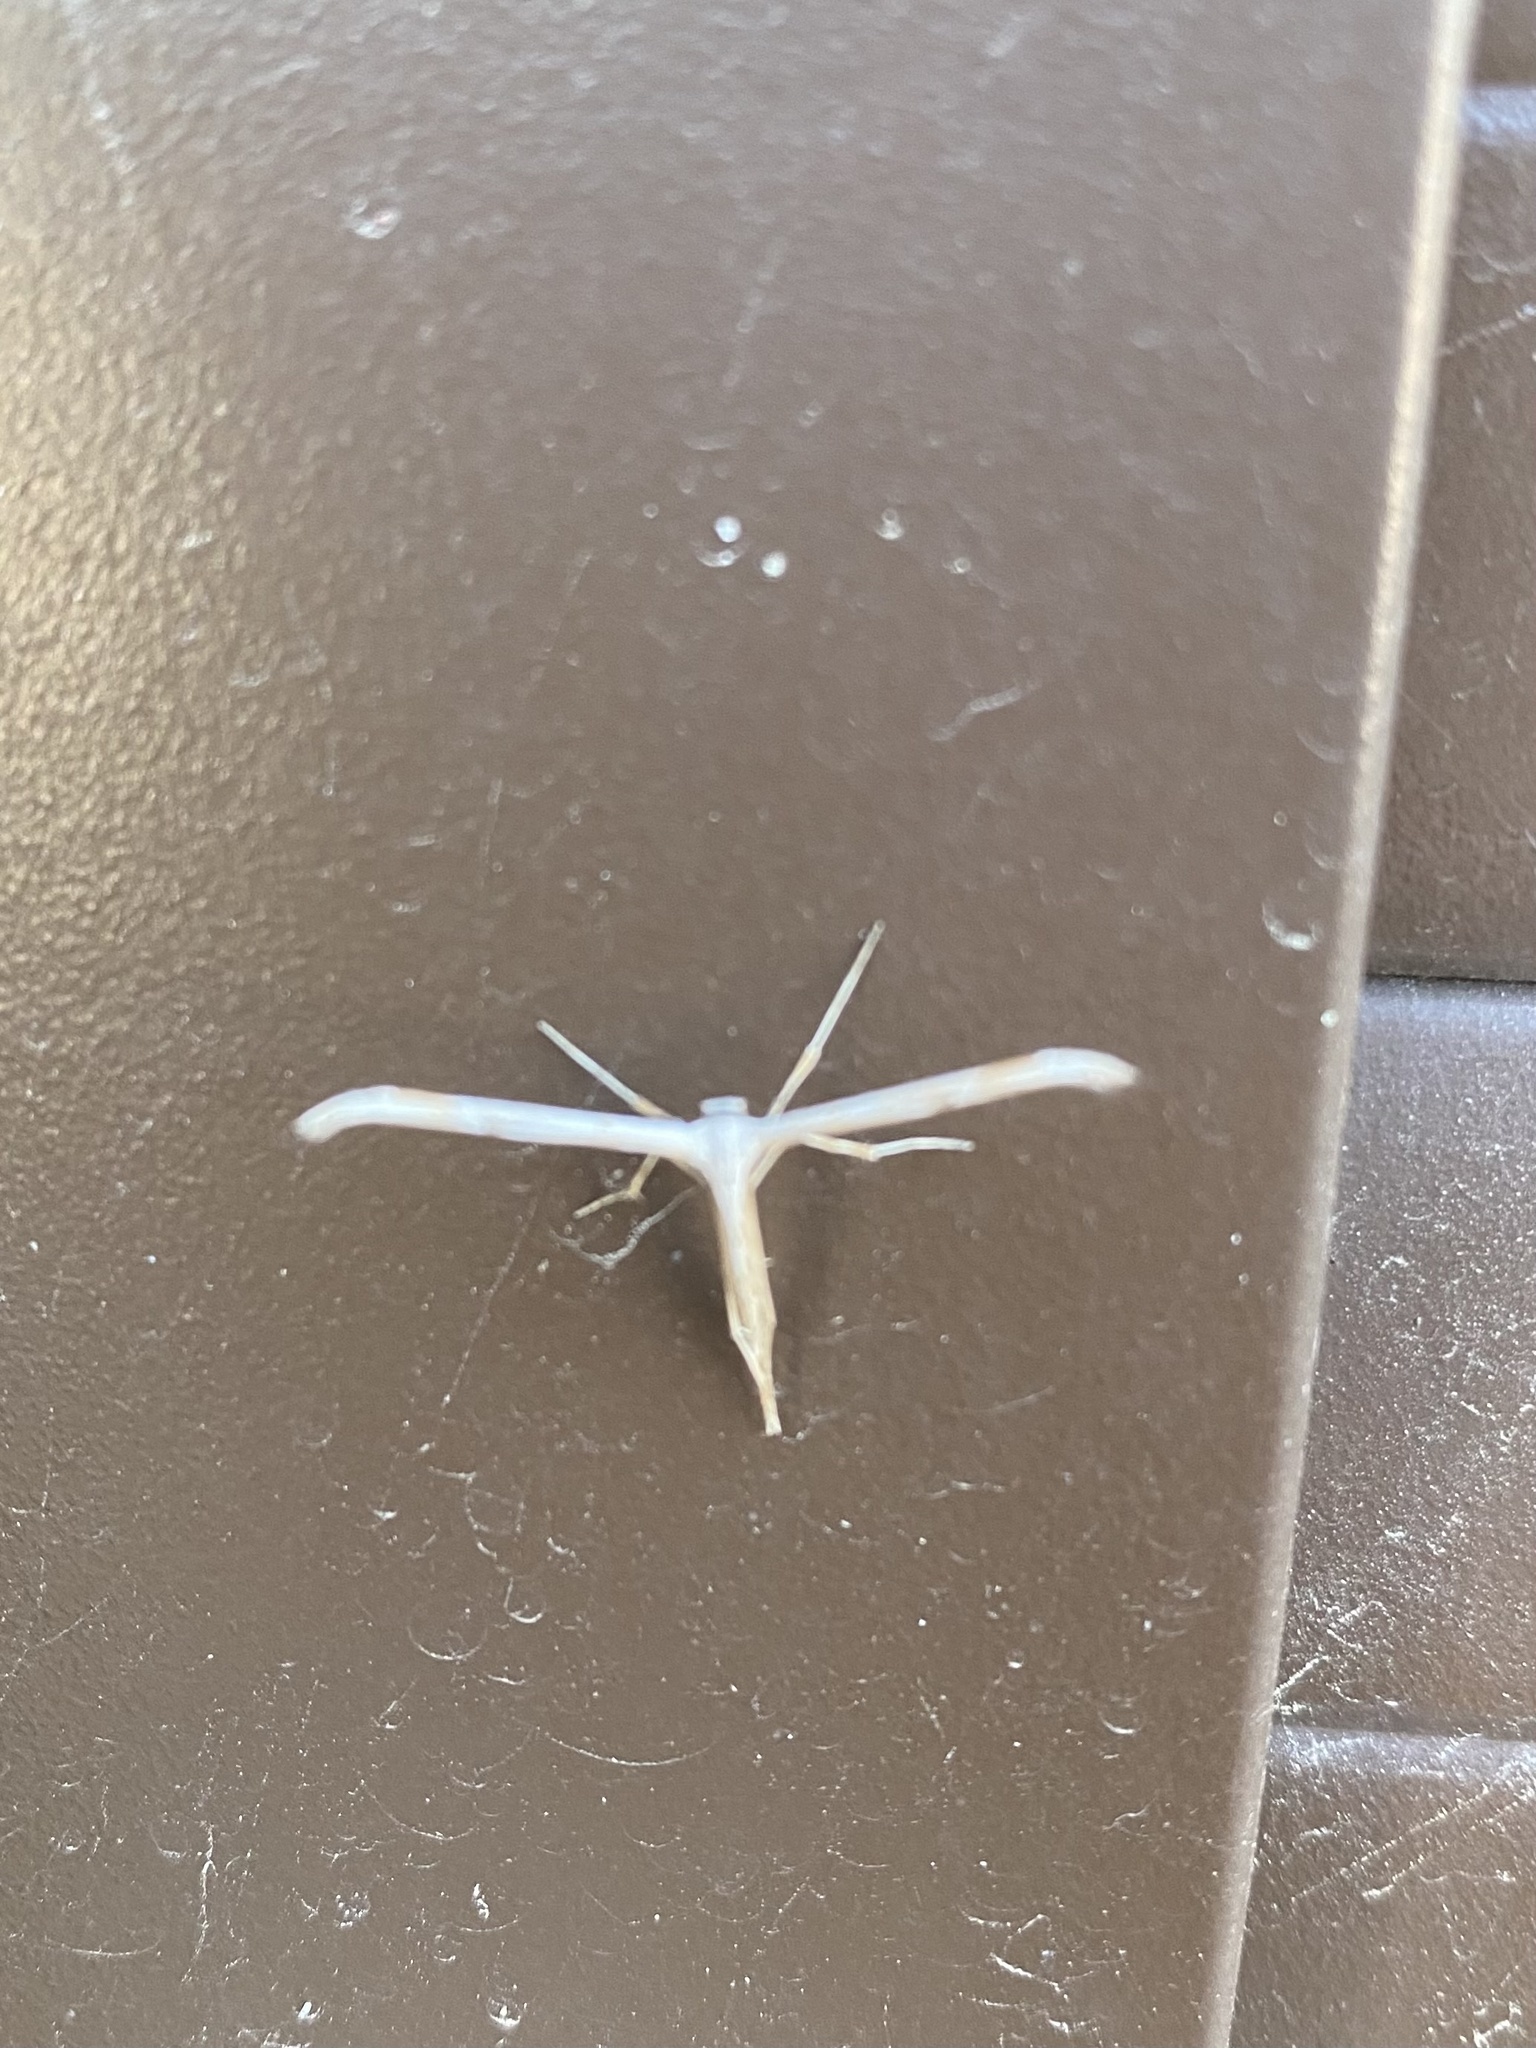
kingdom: Animalia
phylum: Arthropoda
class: Insecta
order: Lepidoptera
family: Pterophoridae
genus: Emmelina
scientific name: Emmelina monodactyla
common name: Common plume
